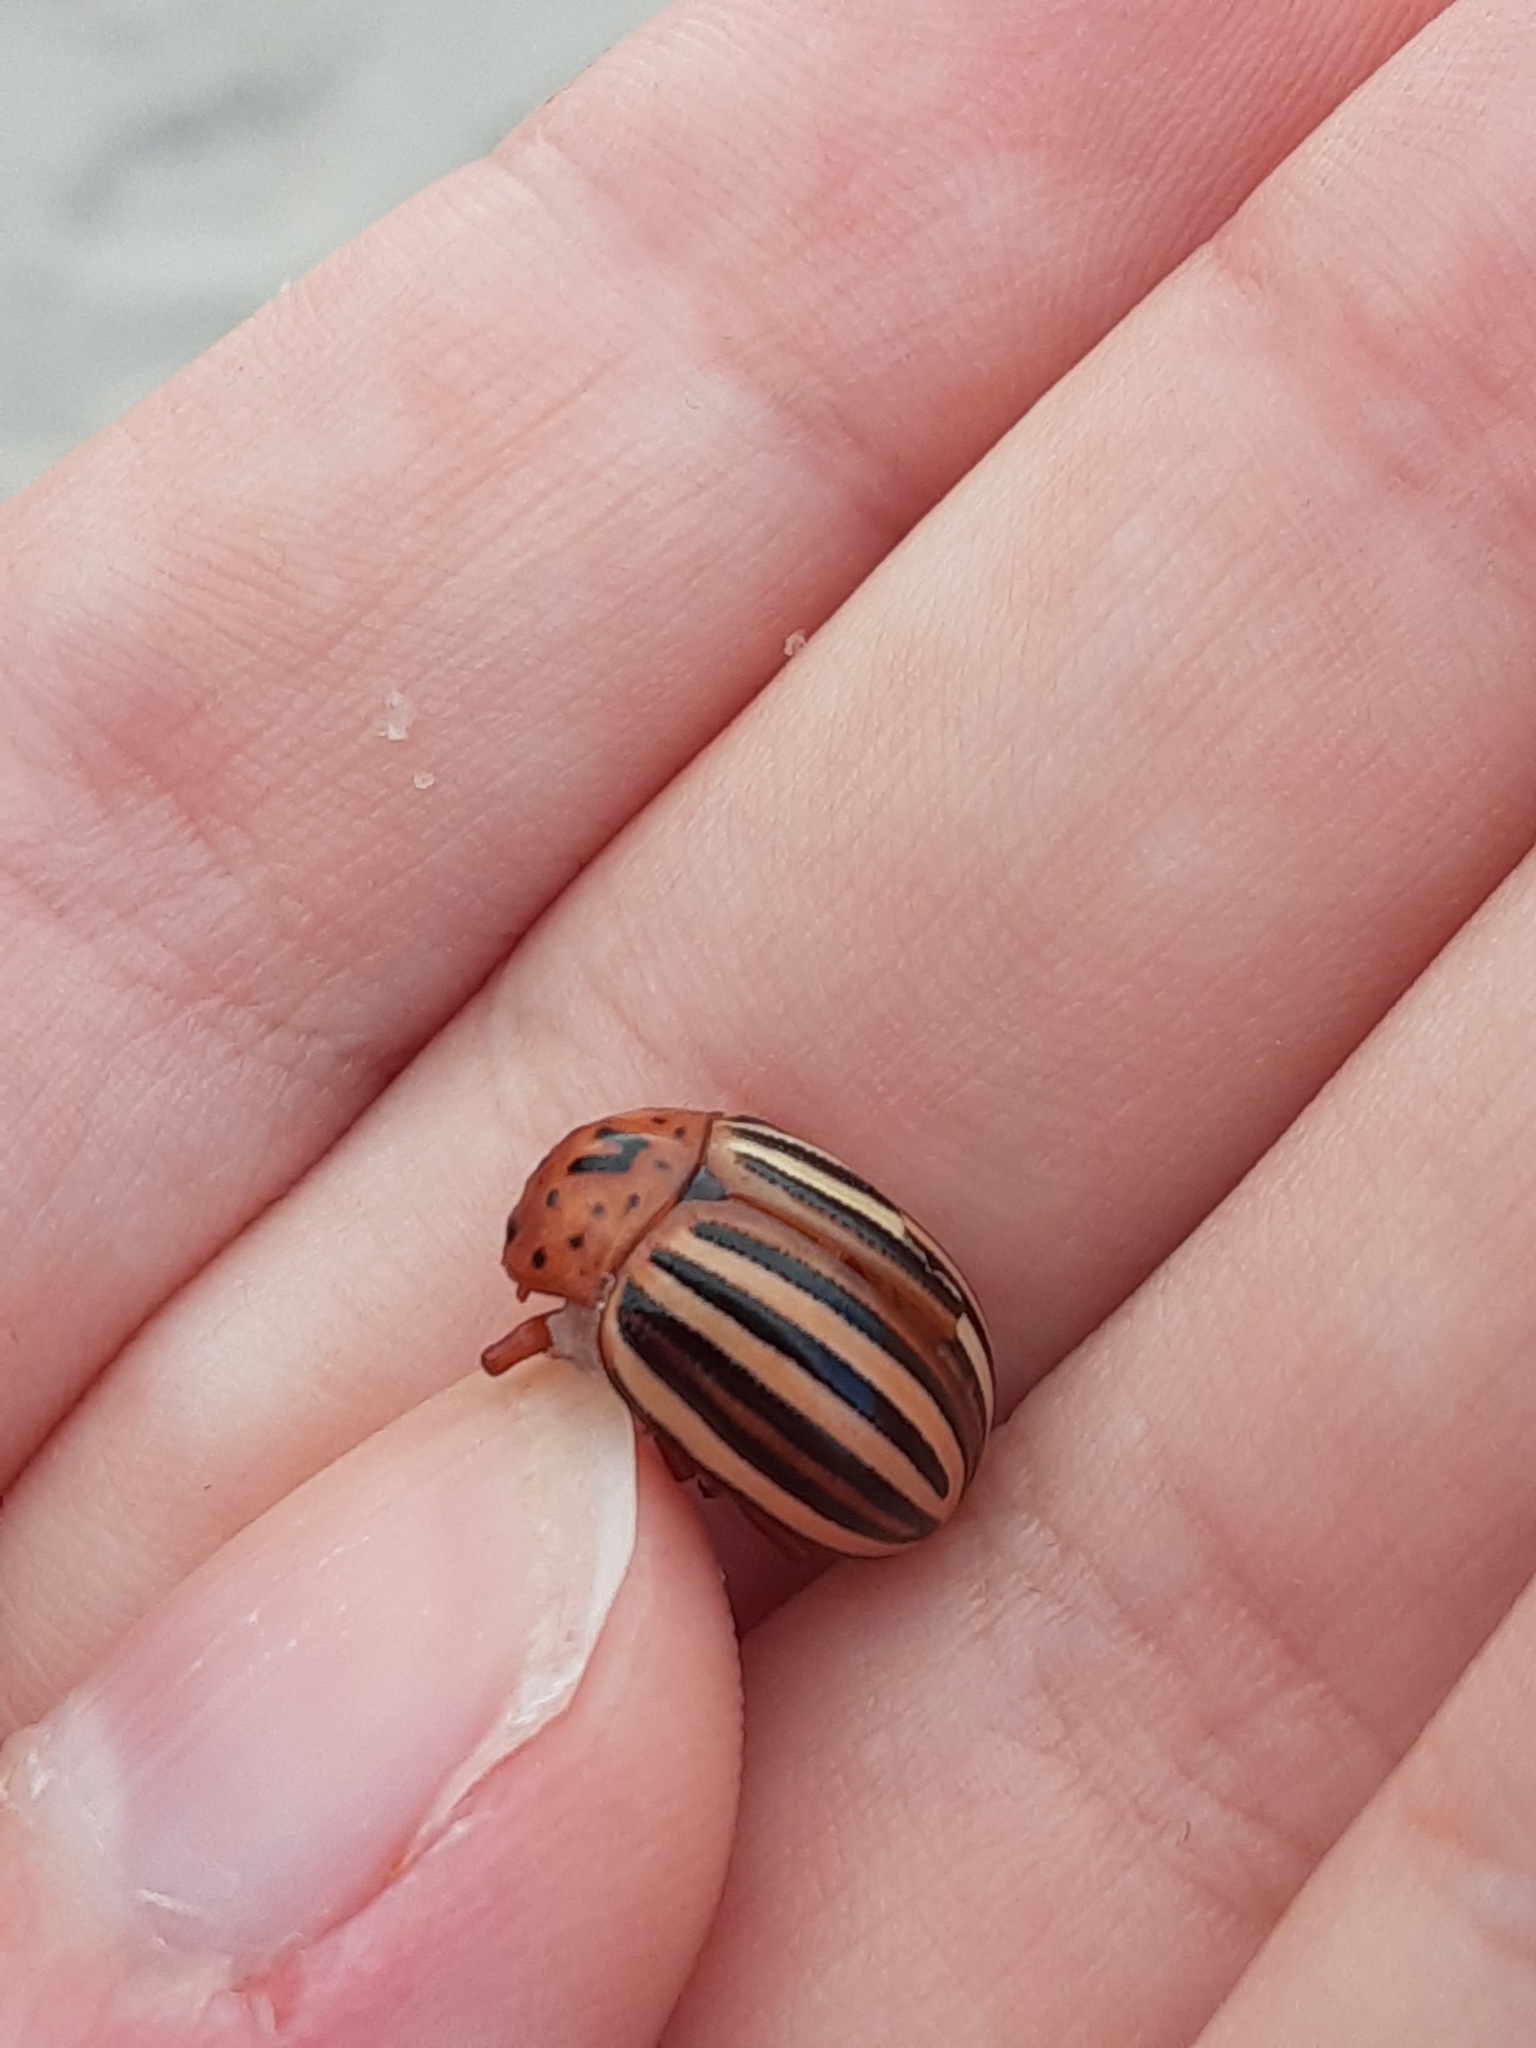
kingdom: Animalia
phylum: Arthropoda
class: Insecta
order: Coleoptera
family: Chrysomelidae
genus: Leptinotarsa
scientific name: Leptinotarsa juncta
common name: False potato beetle
